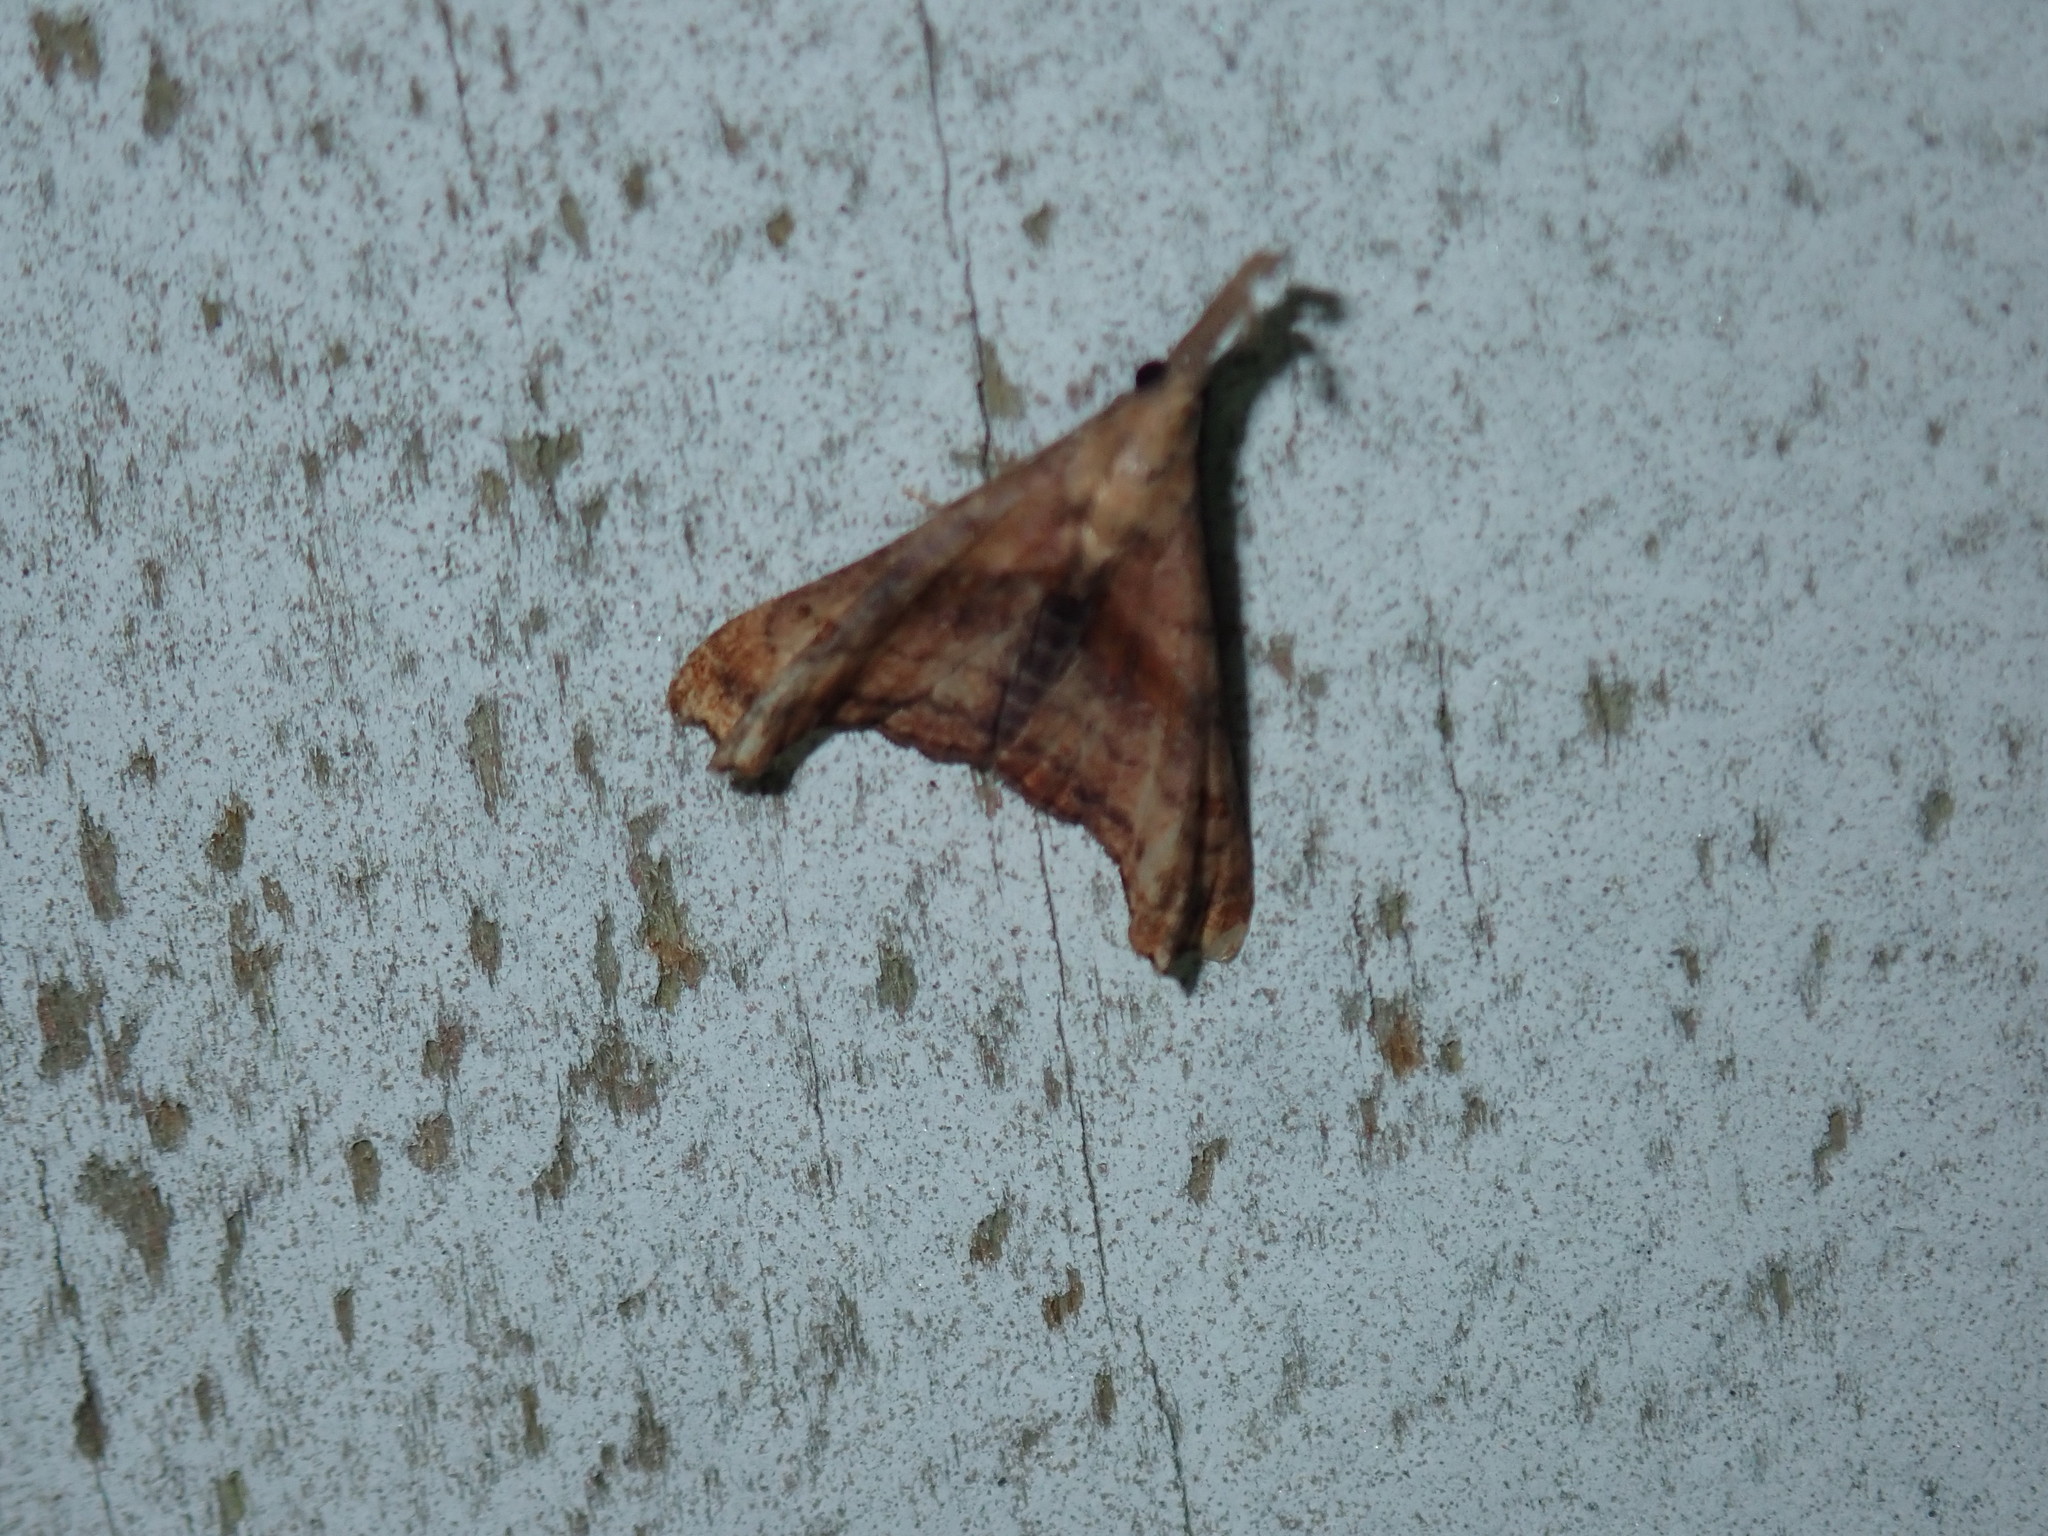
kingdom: Animalia
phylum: Arthropoda
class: Insecta
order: Lepidoptera
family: Erebidae
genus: Palthis
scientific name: Palthis angulalis
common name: Dark-spotted palthis moth
